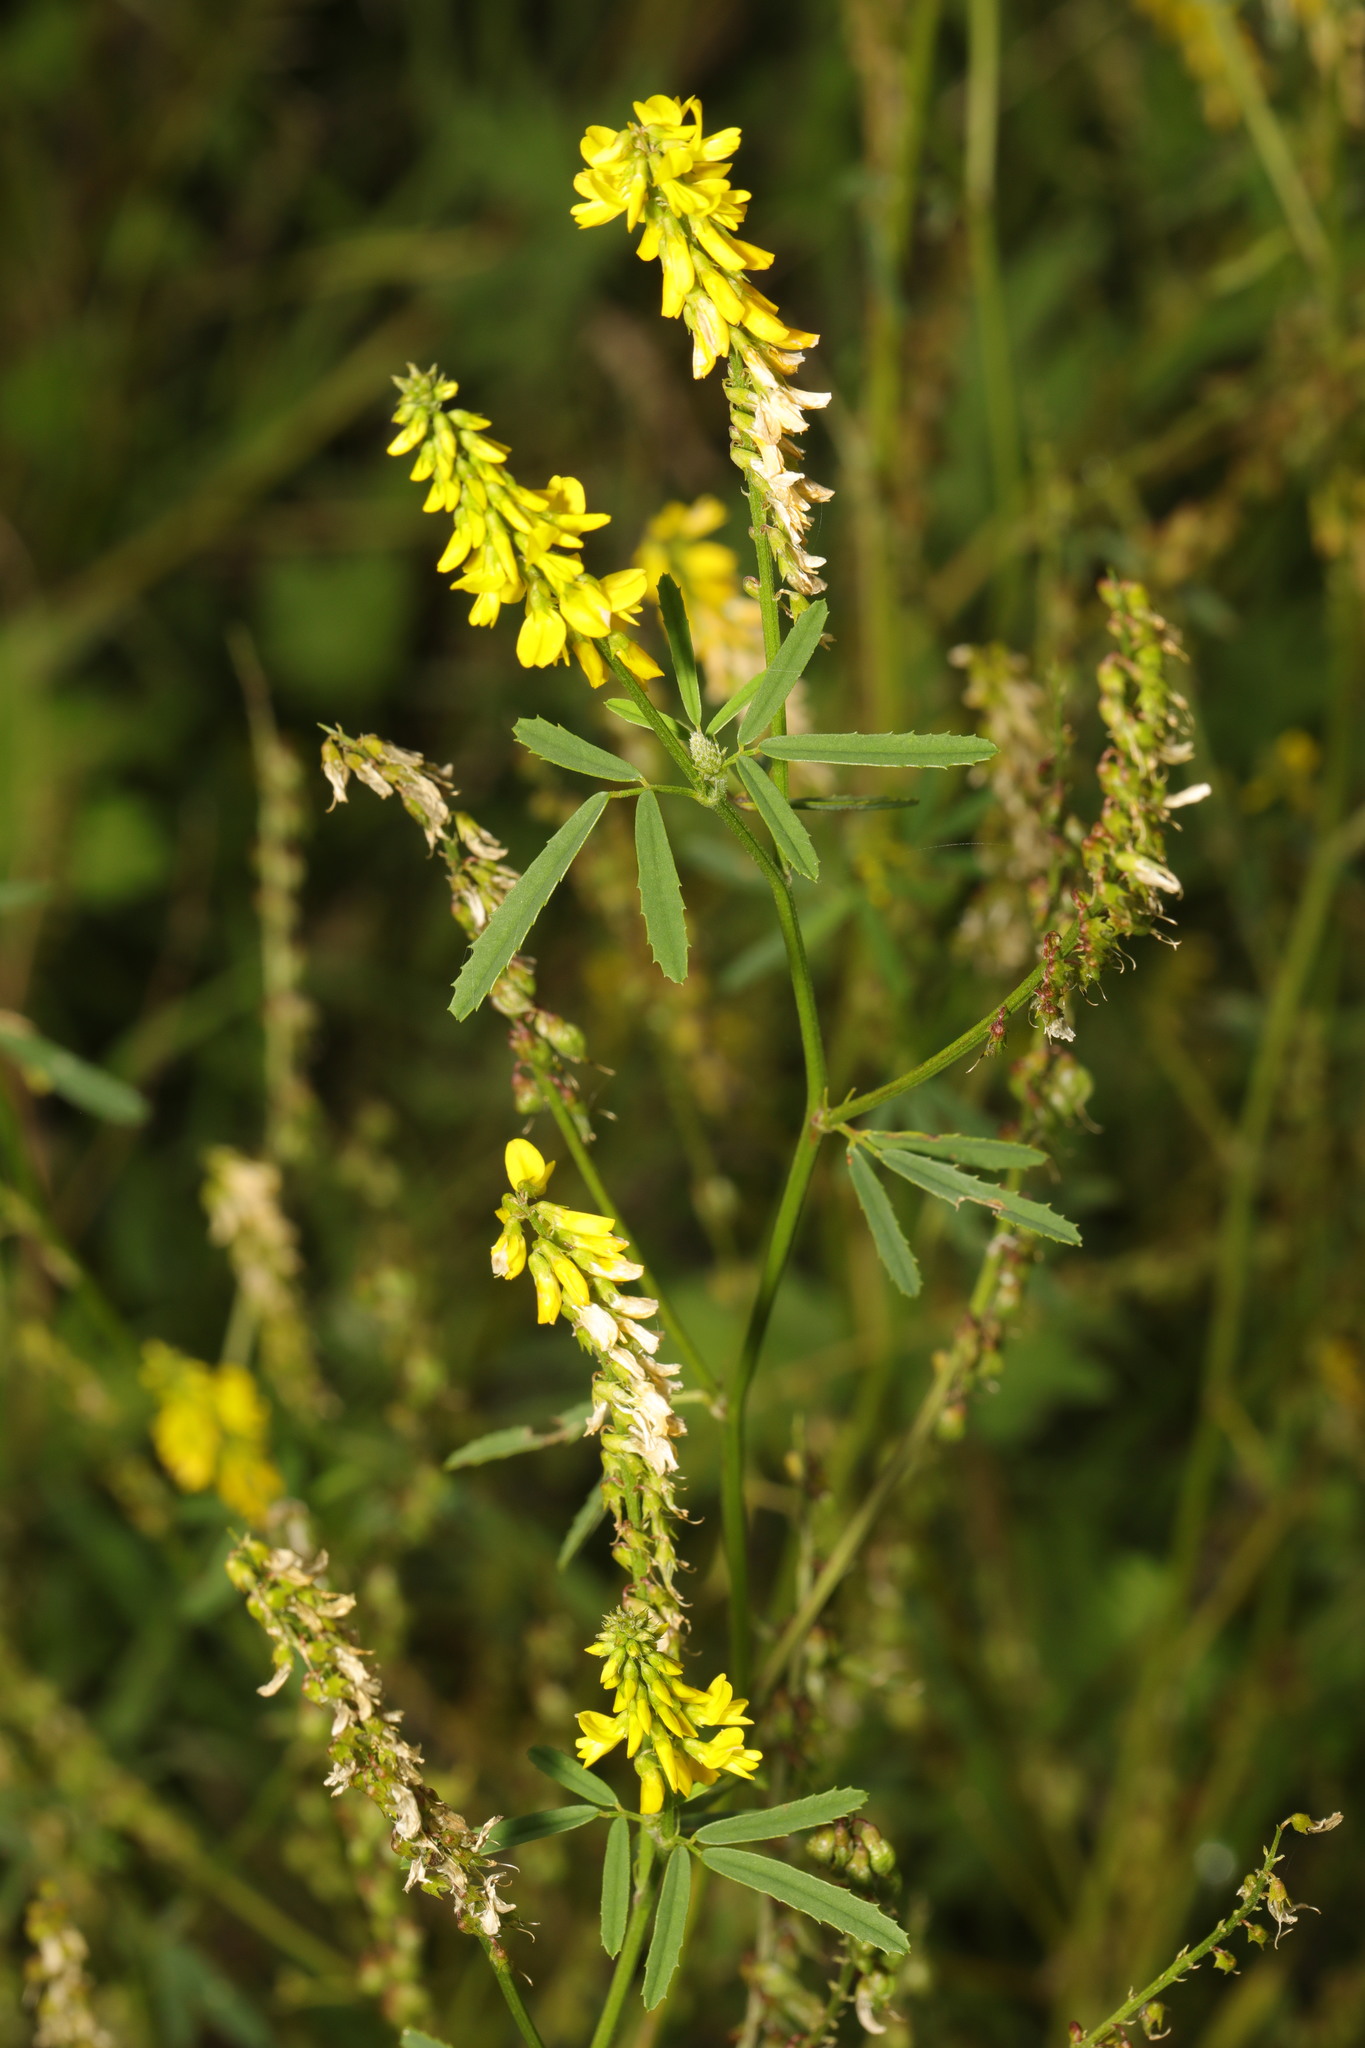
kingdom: Plantae
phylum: Tracheophyta
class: Magnoliopsida
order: Fabales
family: Fabaceae
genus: Melilotus
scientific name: Melilotus officinalis
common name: Sweetclover
